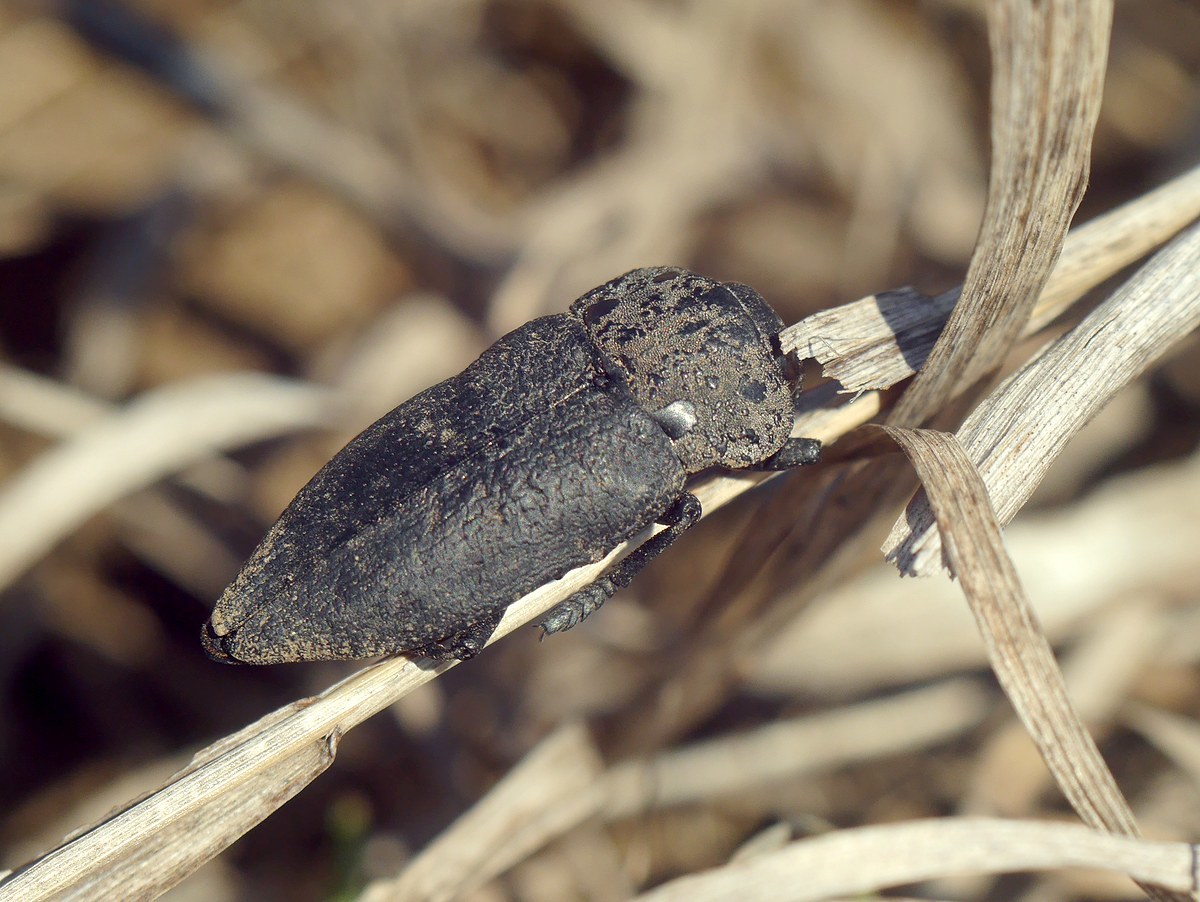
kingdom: Animalia
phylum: Arthropoda
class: Insecta
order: Coleoptera
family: Buprestidae
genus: Capnodis
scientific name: Capnodis tenebrionis
